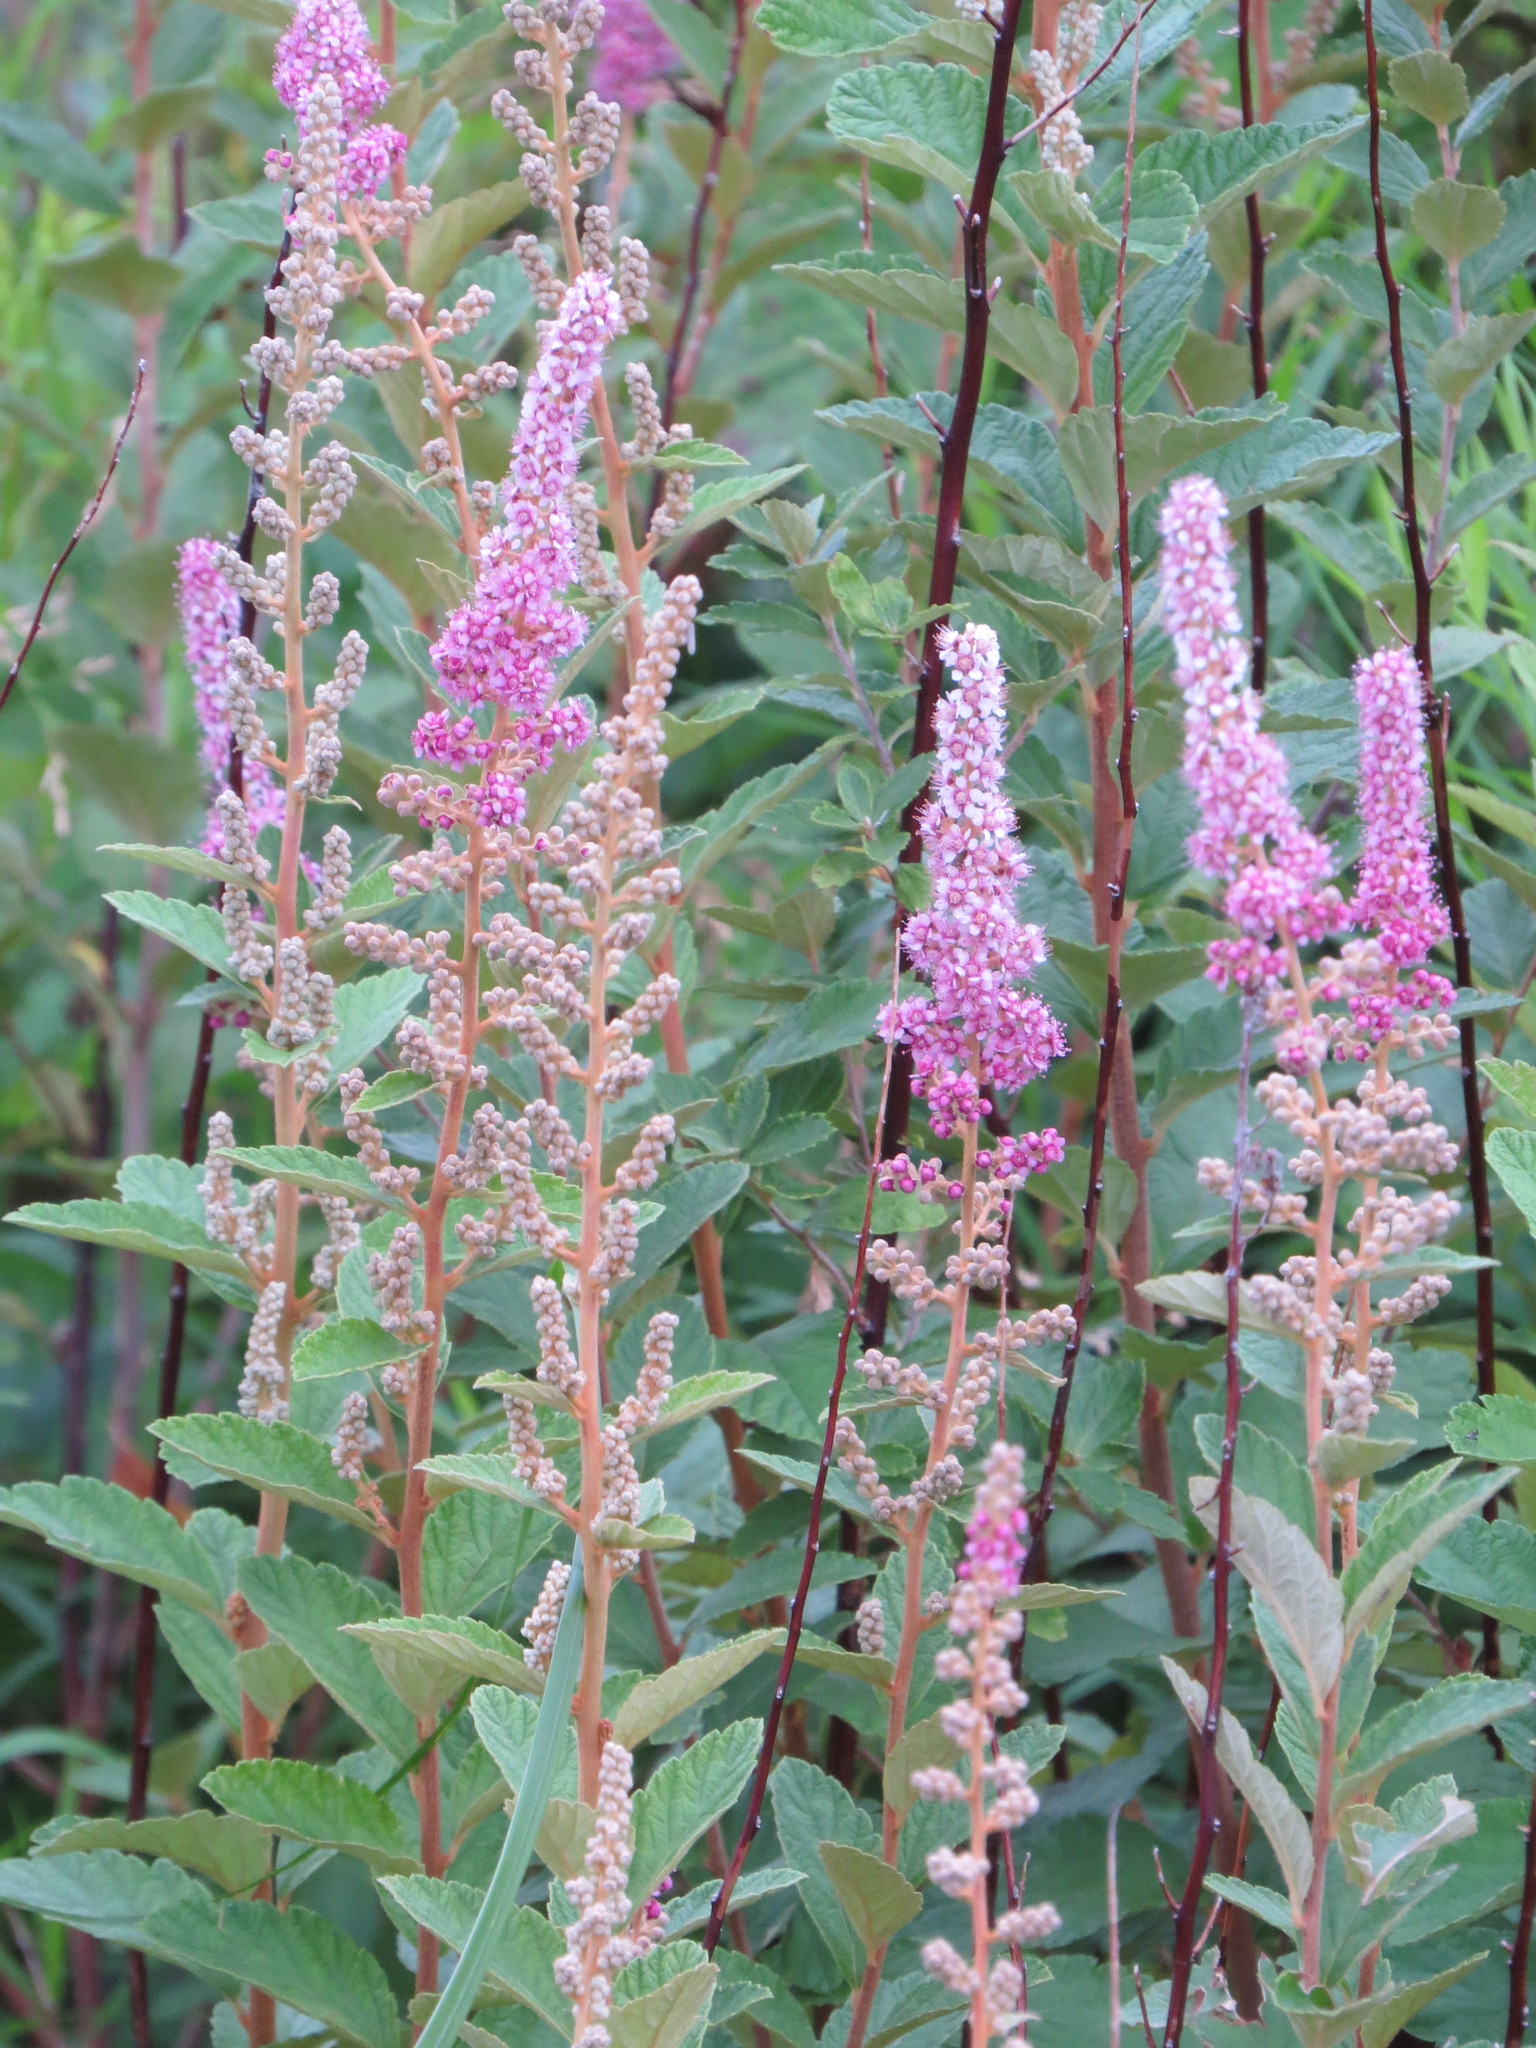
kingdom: Plantae
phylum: Tracheophyta
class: Magnoliopsida
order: Rosales
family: Rosaceae
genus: Spiraea
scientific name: Spiraea tomentosa
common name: Hardhack
